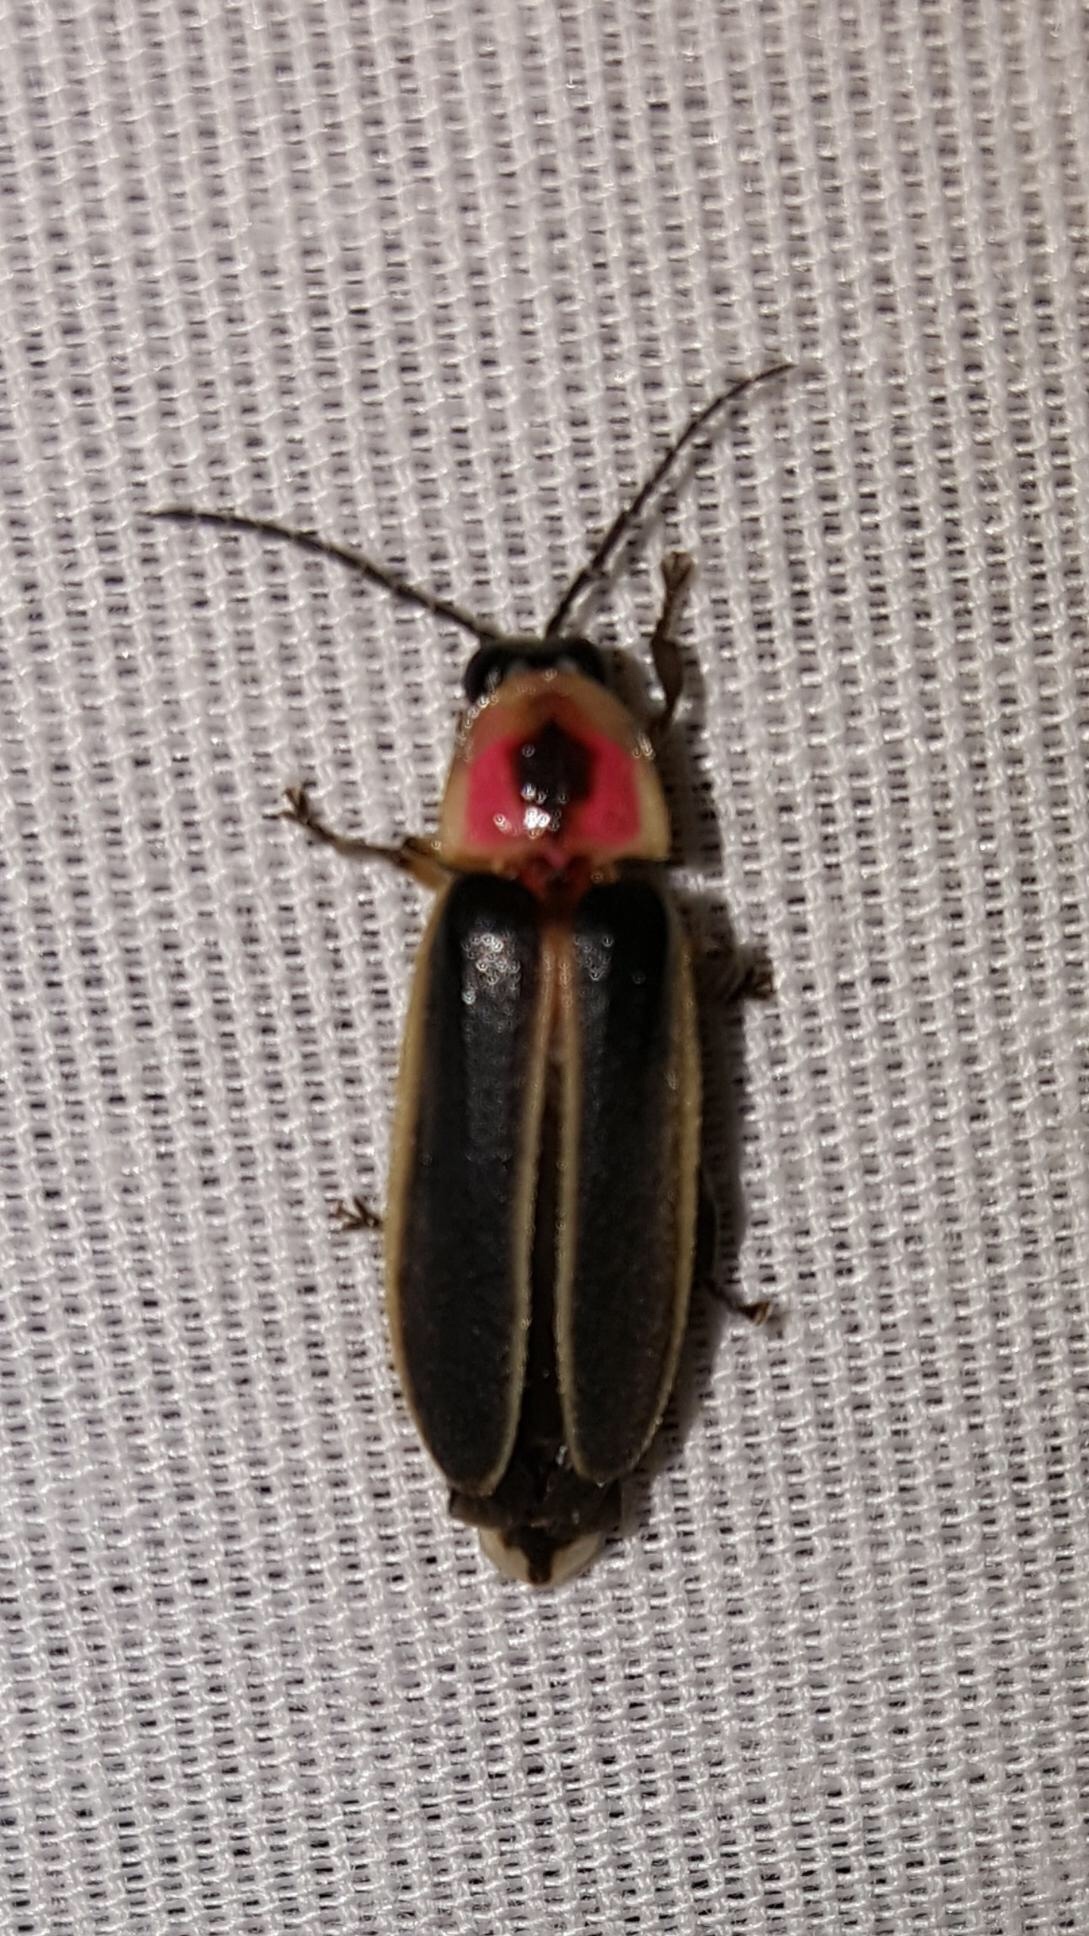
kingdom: Animalia
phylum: Arthropoda
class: Insecta
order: Coleoptera
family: Lampyridae
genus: Photinus
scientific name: Photinus pyralis
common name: Big dipper firefly
